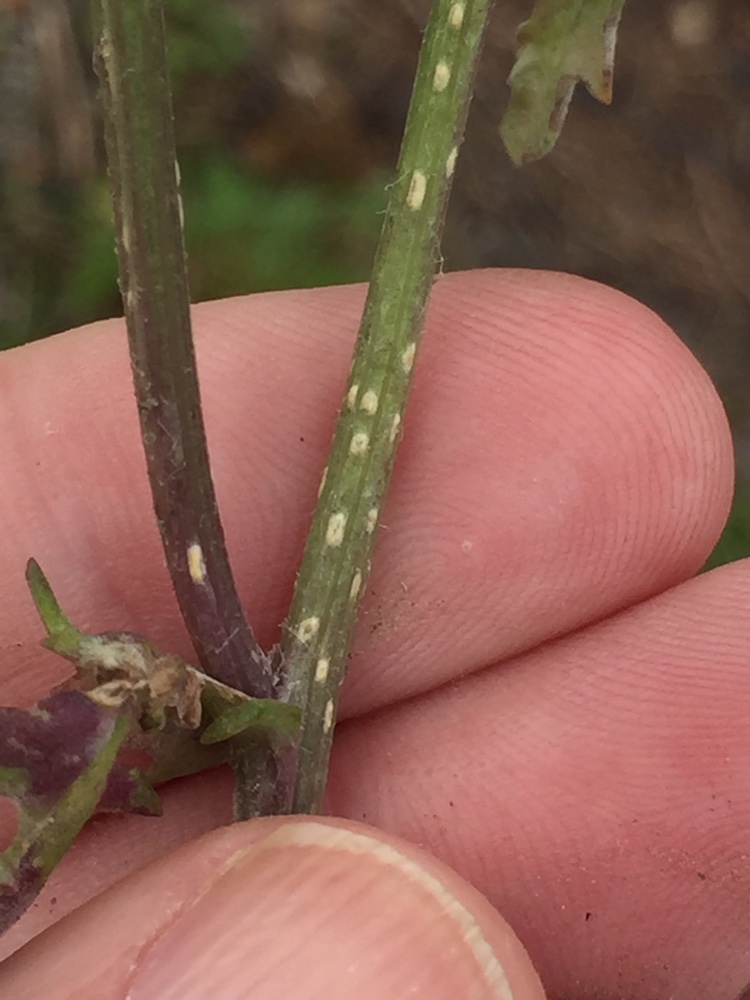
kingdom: Chromista
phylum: Oomycota
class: Peronosporea
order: Albuginales
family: Albuginaceae
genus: Pustula
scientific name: Pustula
